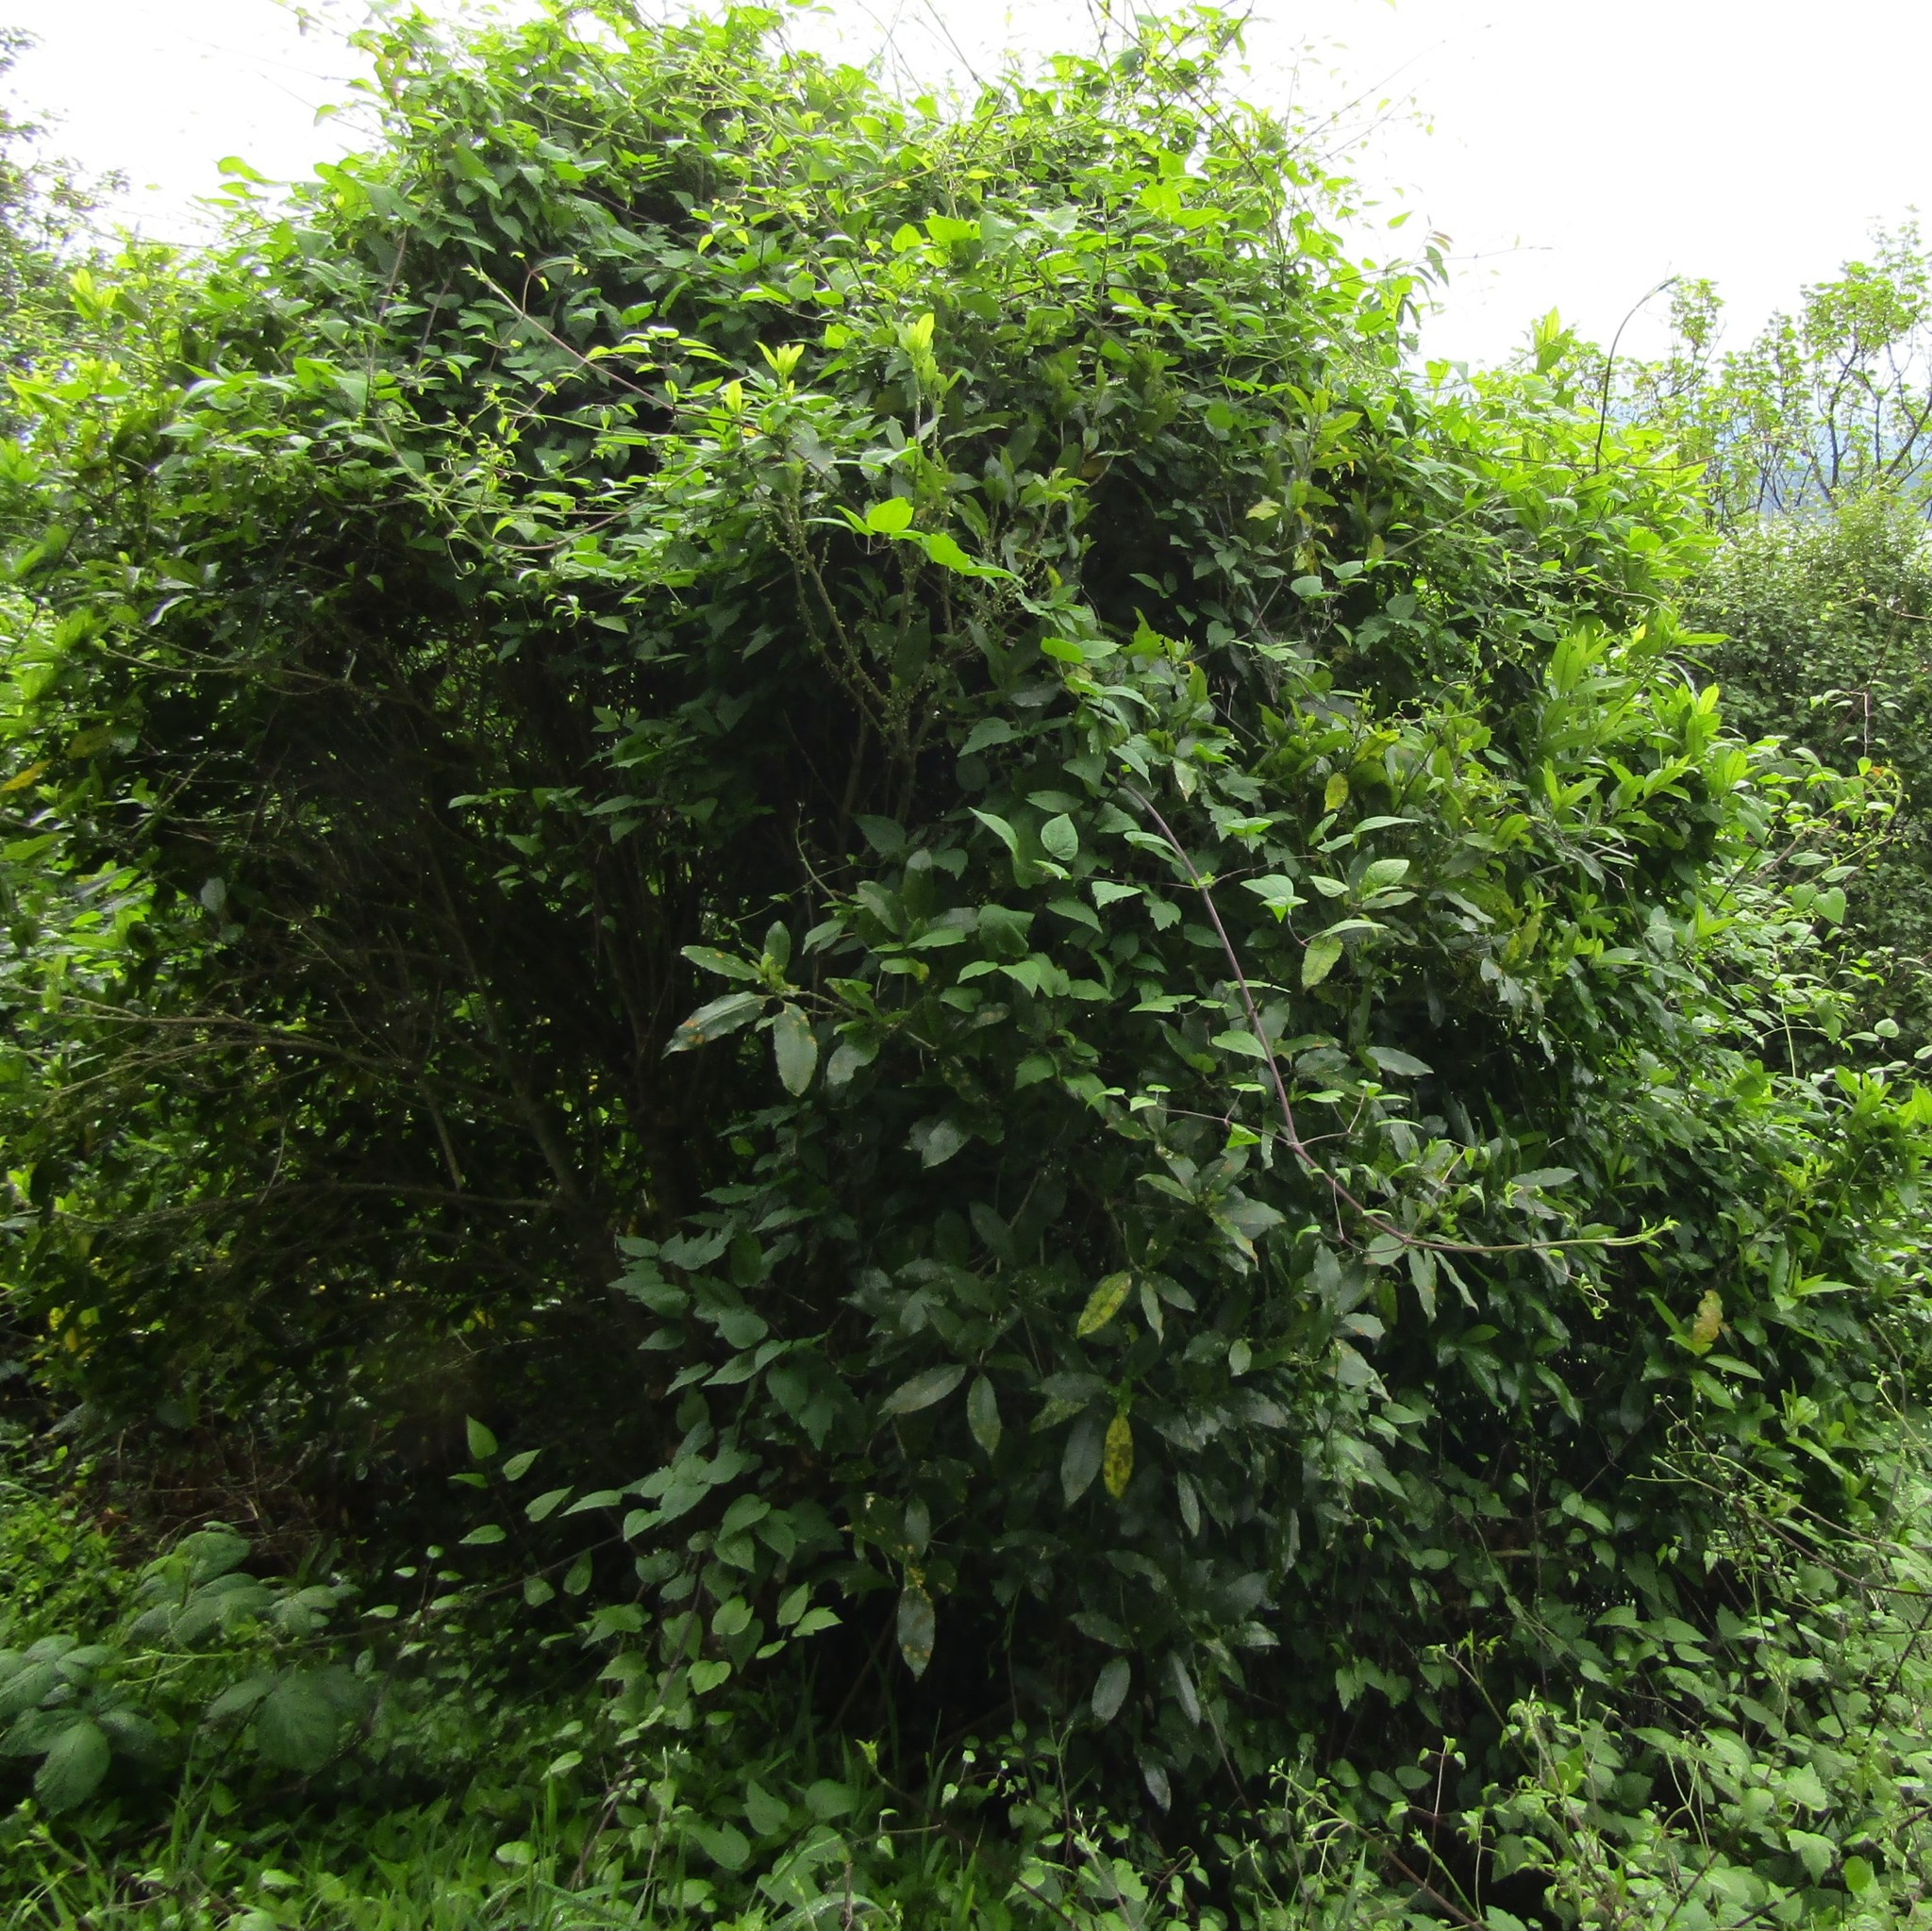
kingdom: Plantae
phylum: Tracheophyta
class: Magnoliopsida
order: Ranunculales
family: Ranunculaceae
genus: Clematis
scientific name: Clematis vitalba
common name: Evergreen clematis
